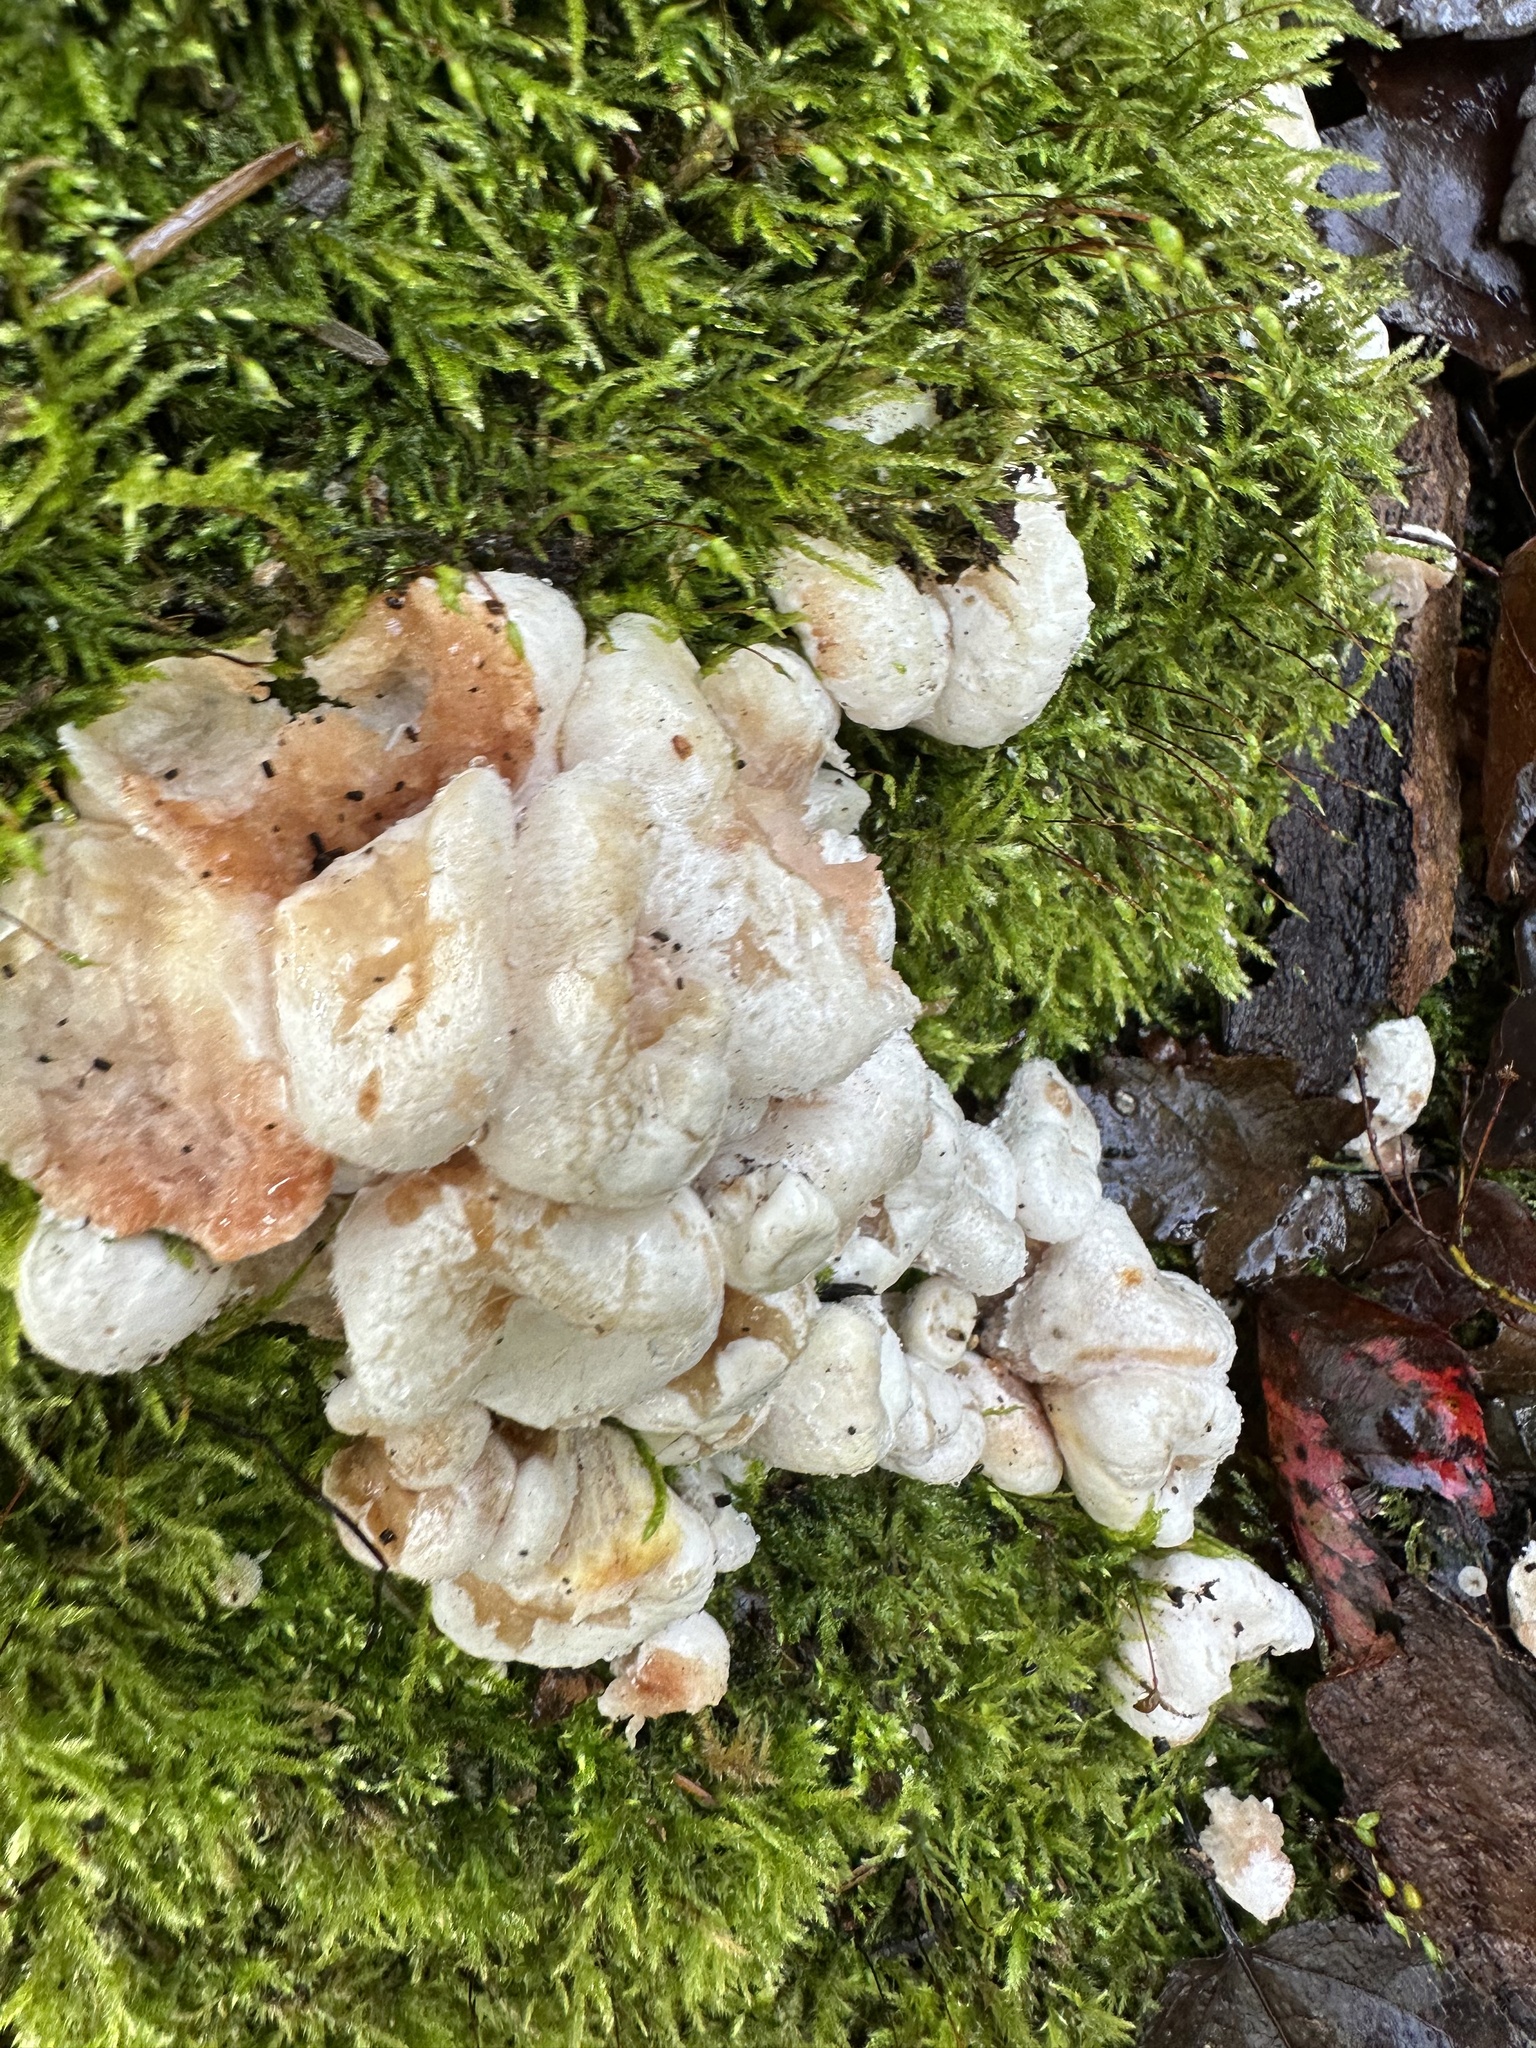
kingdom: Fungi
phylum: Basidiomycota
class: Agaricomycetes
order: Agaricales
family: Entolomataceae
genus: Entoloma
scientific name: Entoloma abortivum
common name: Aborted entoloma
